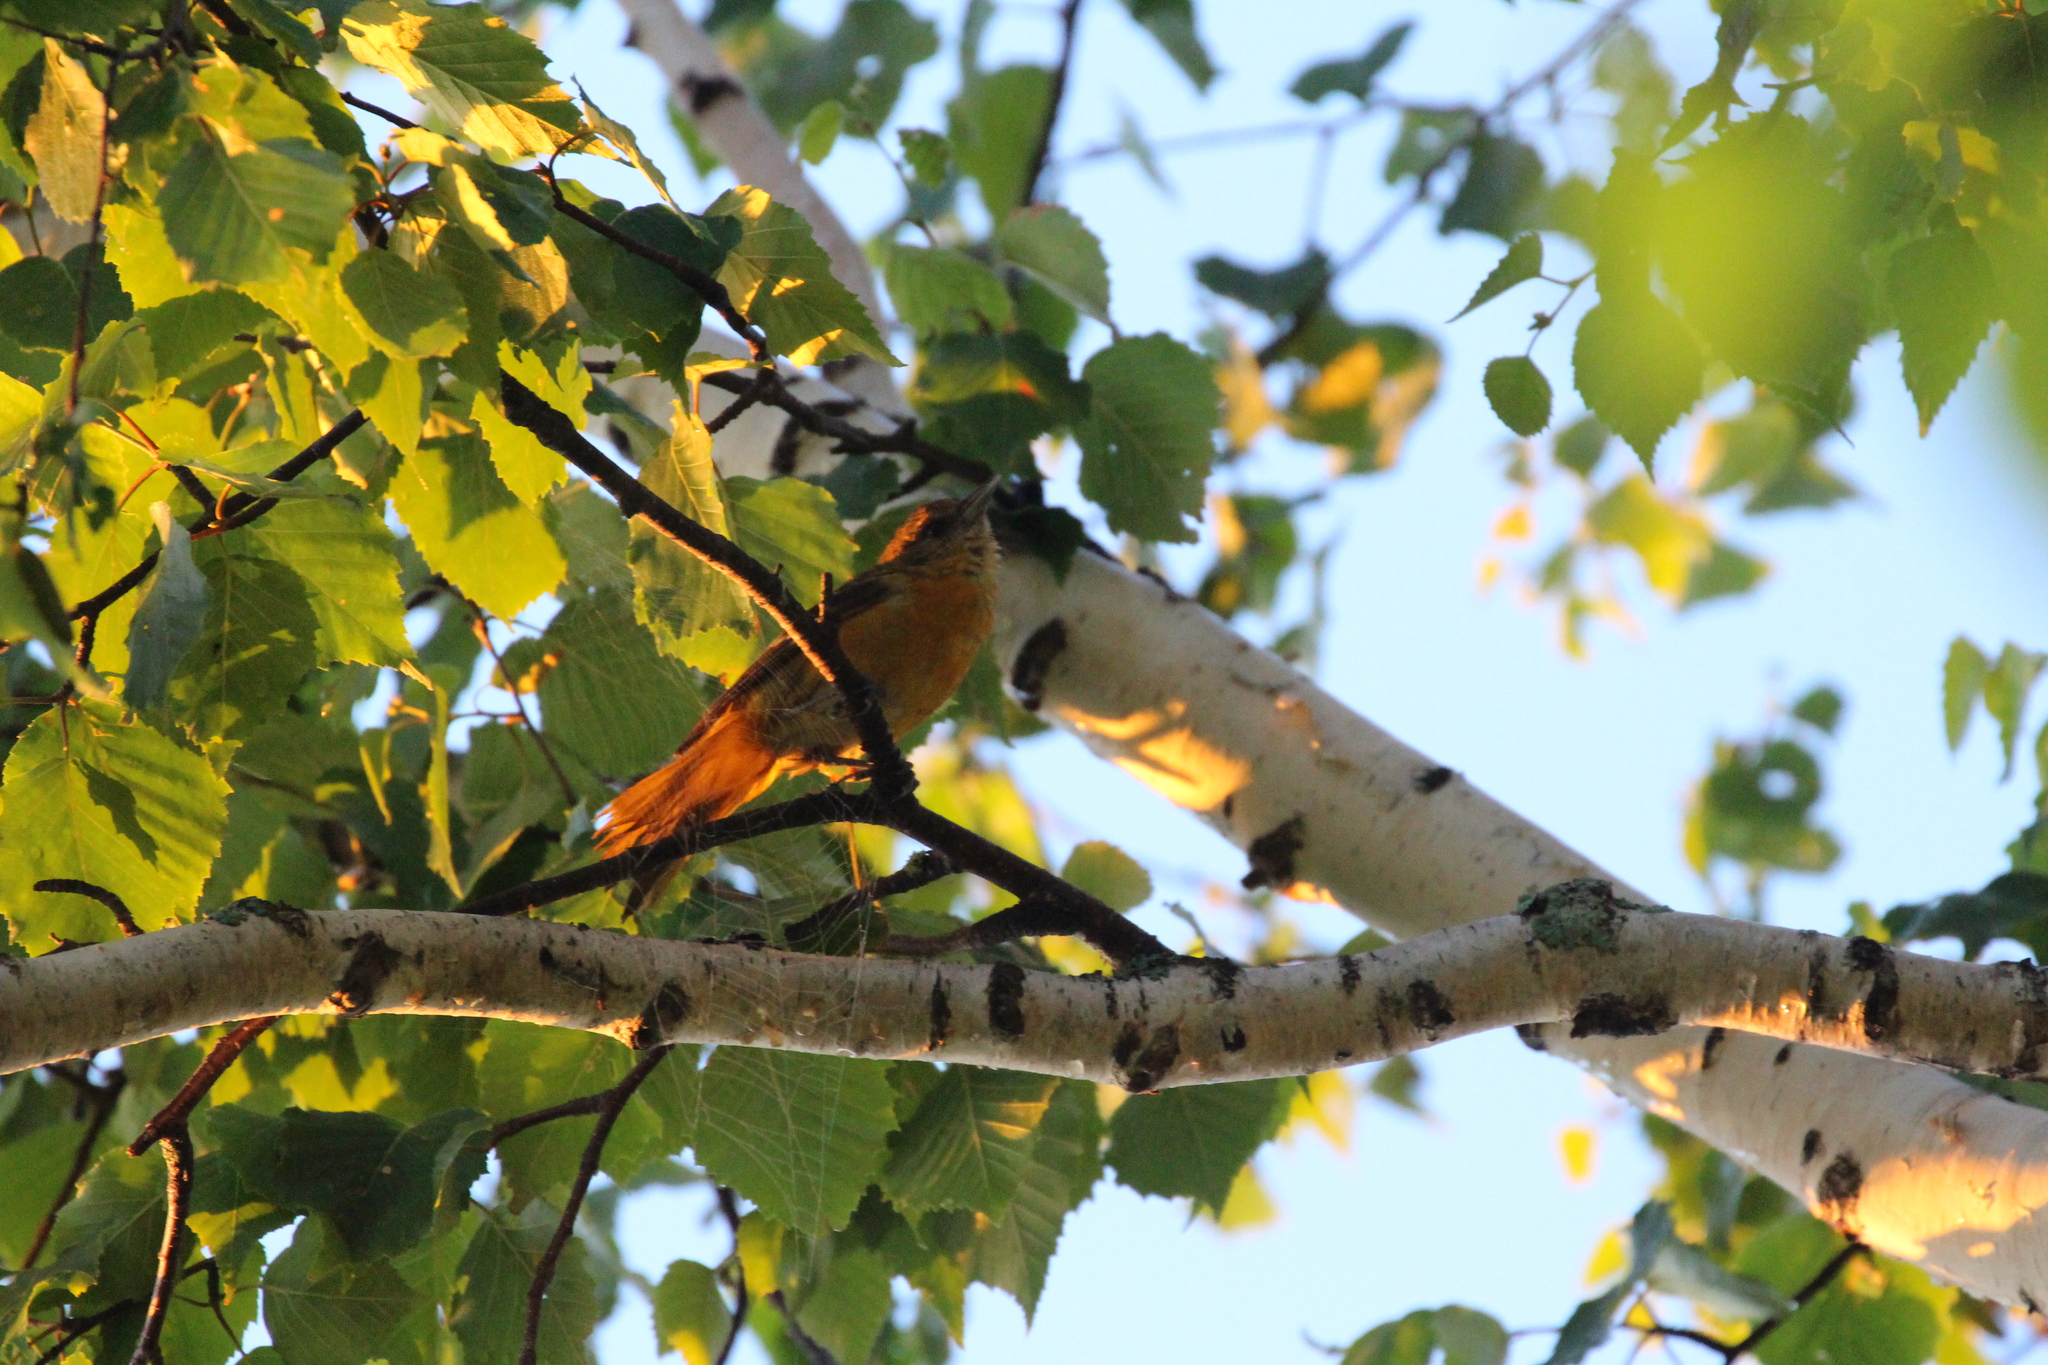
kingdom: Animalia
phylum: Chordata
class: Aves
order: Passeriformes
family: Icteridae
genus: Icterus
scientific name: Icterus galbula
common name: Baltimore oriole
